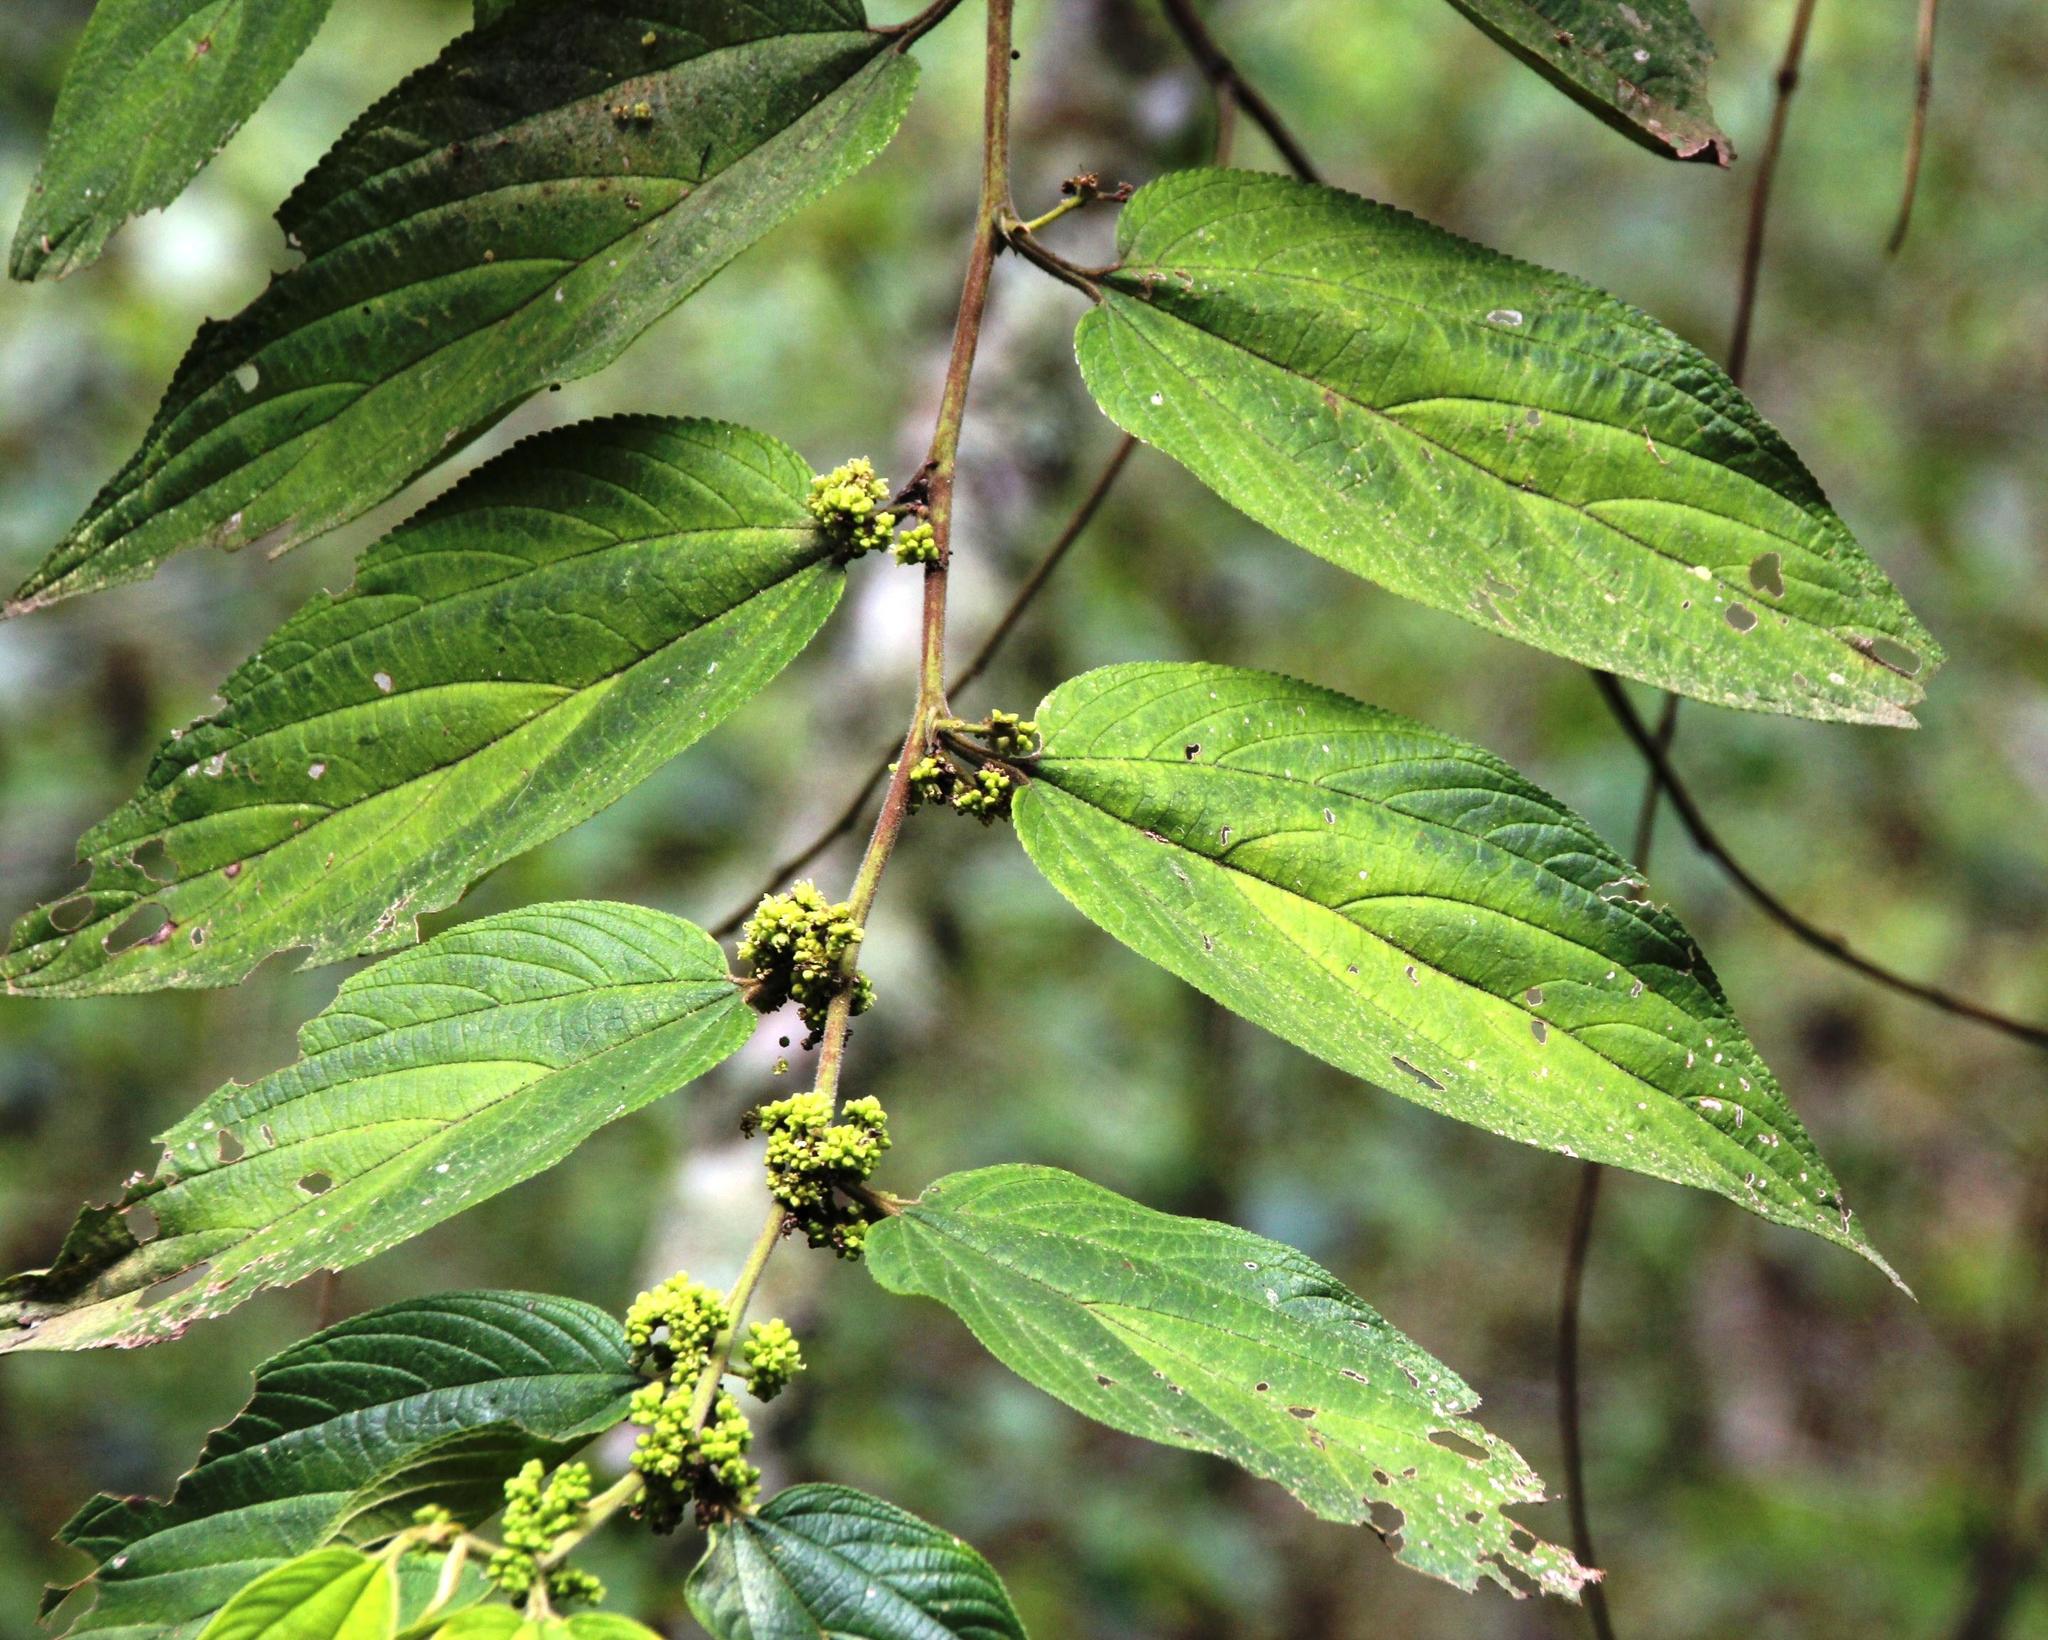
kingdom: Plantae
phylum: Tracheophyta
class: Magnoliopsida
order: Rosales
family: Cannabaceae
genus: Trema
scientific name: Trema micranthum
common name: Jamaican nettletree
